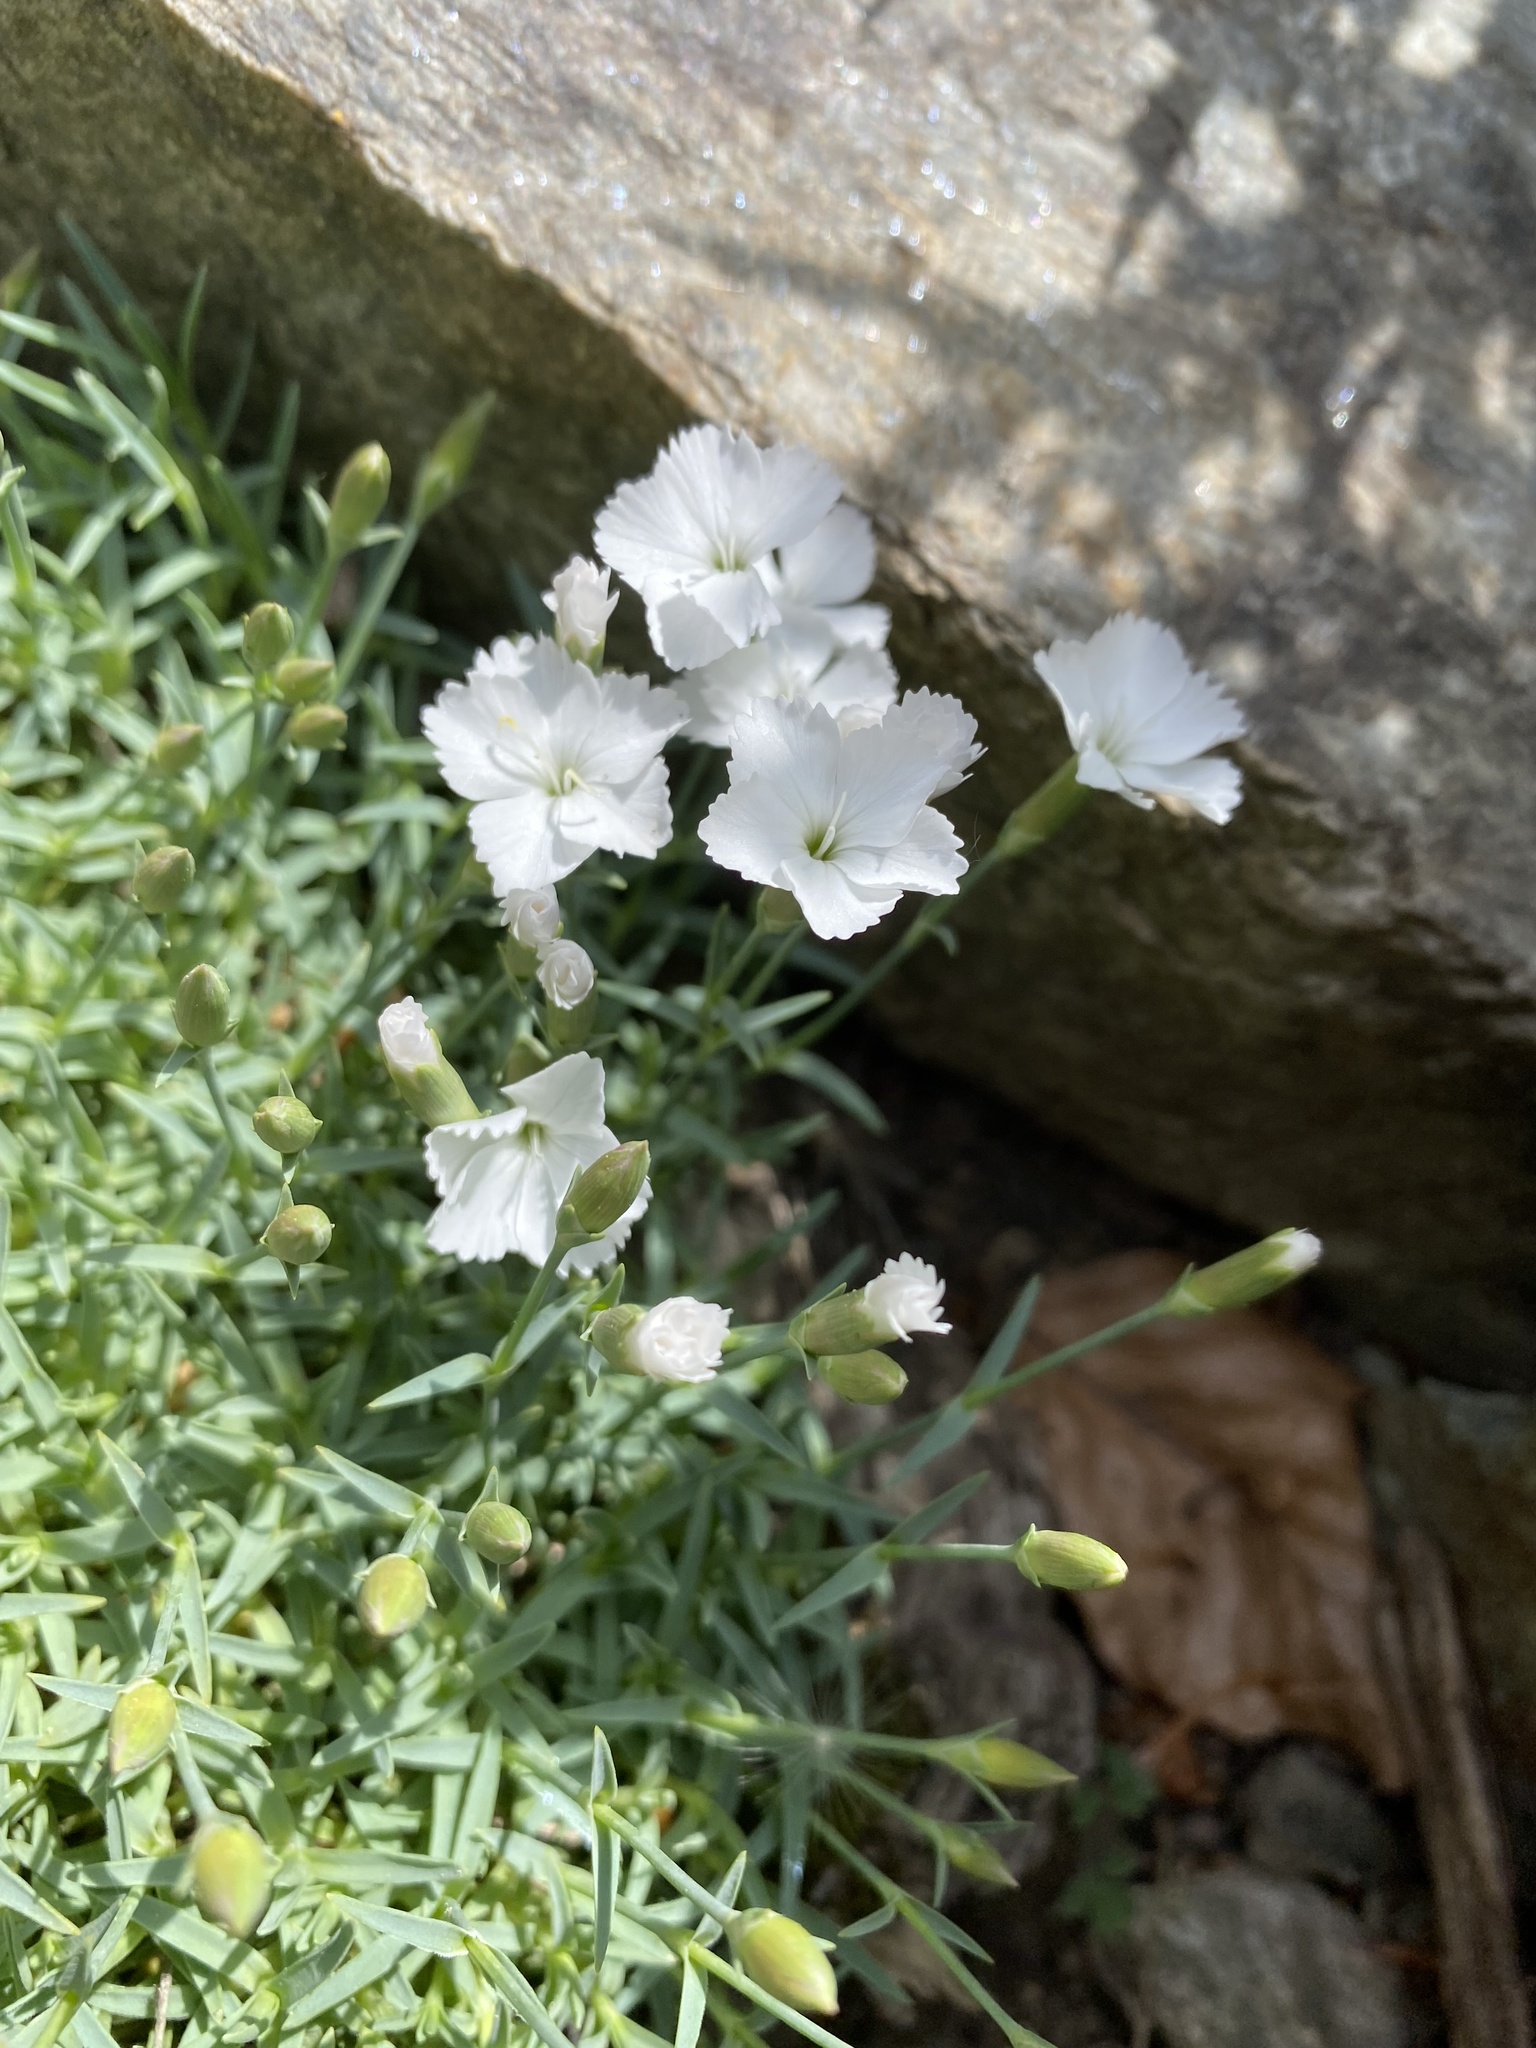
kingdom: Plantae
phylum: Tracheophyta
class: Magnoliopsida
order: Caryophyllales
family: Caryophyllaceae
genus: Dianthus
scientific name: Dianthus sylvestris
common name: Wood pink
